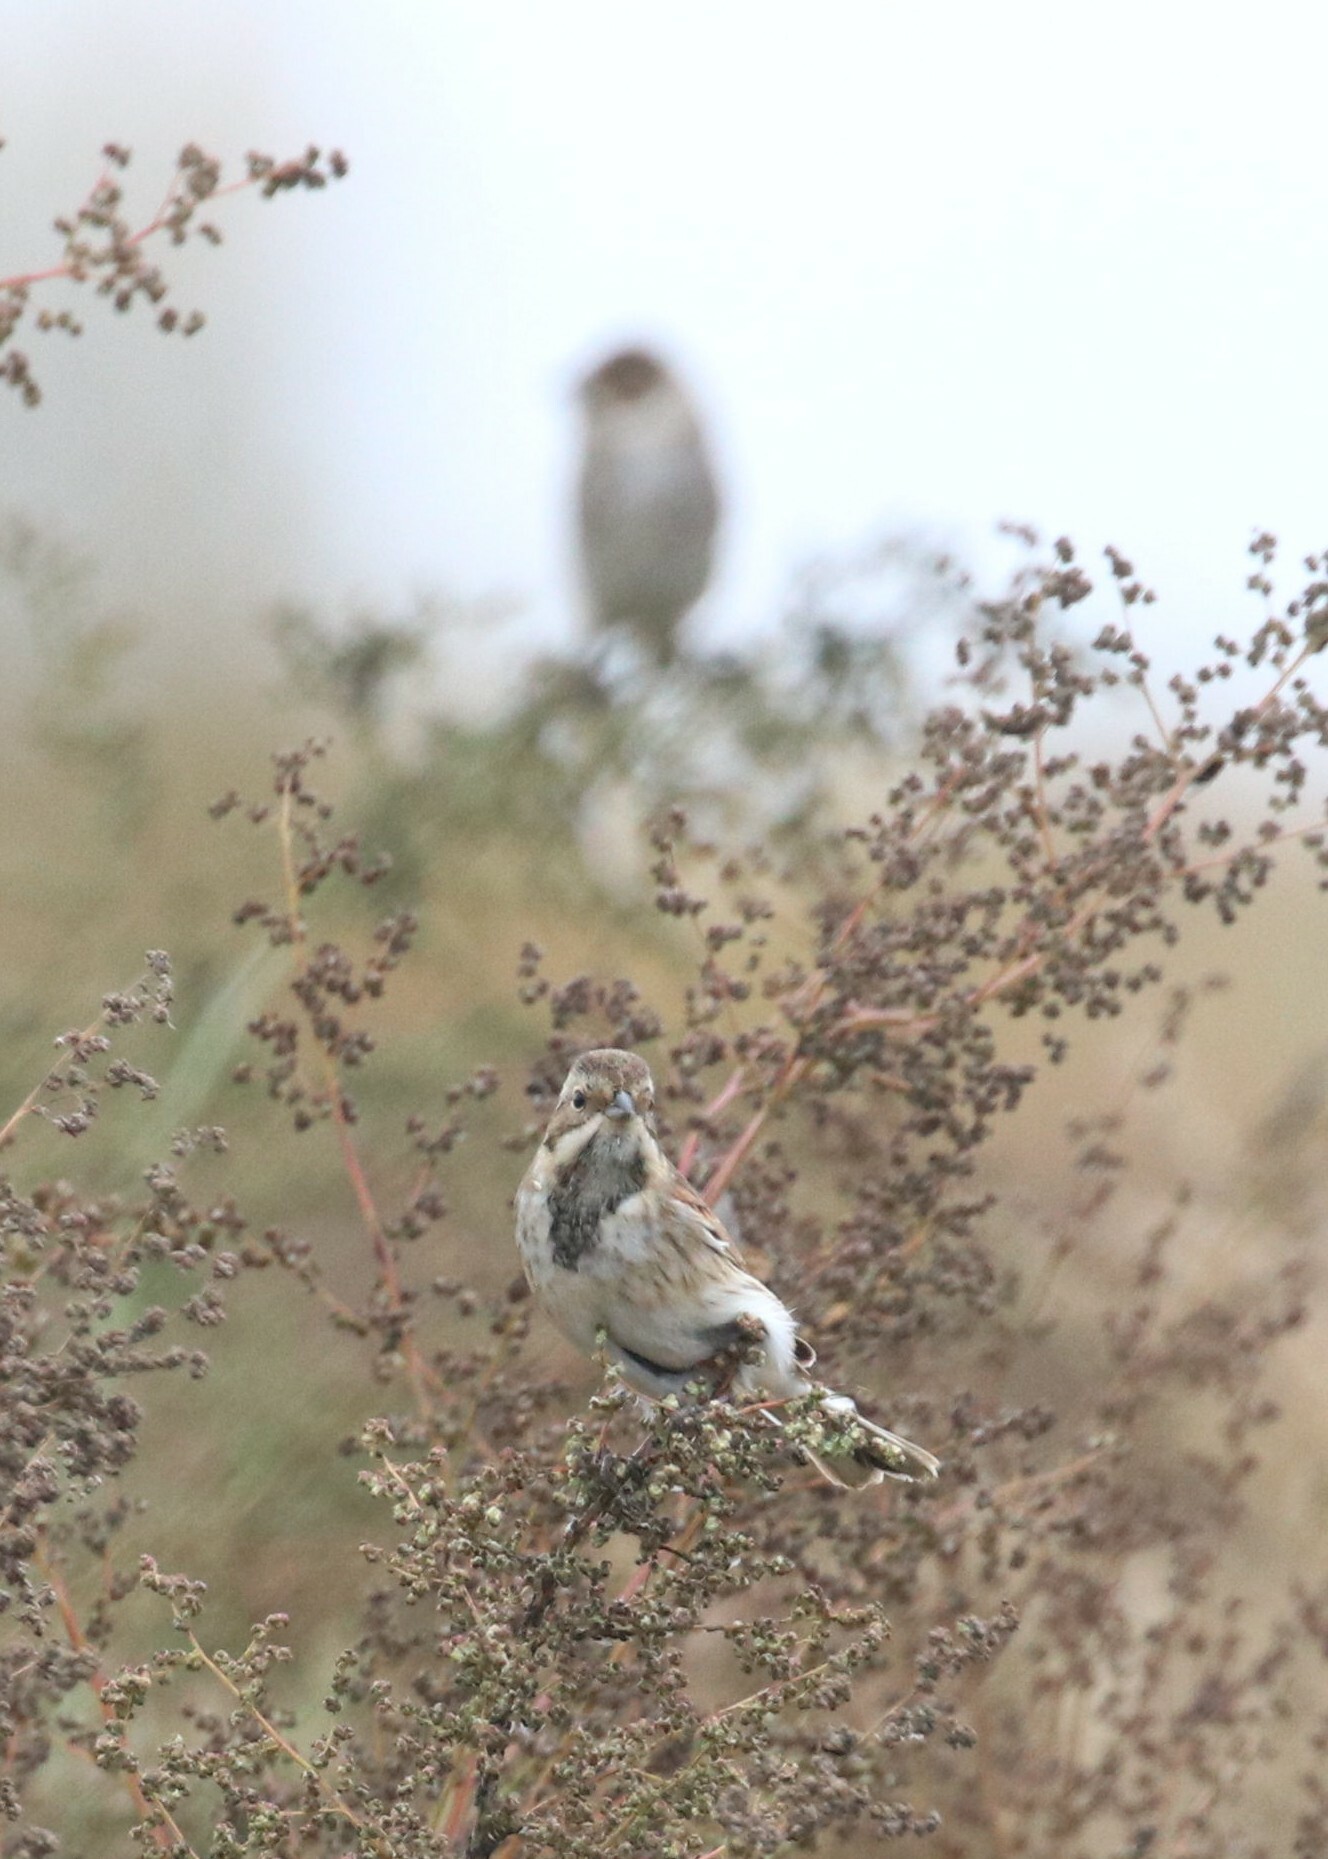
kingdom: Animalia
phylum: Chordata
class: Aves
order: Passeriformes
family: Emberizidae
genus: Emberiza
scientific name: Emberiza schoeniclus
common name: Reed bunting
